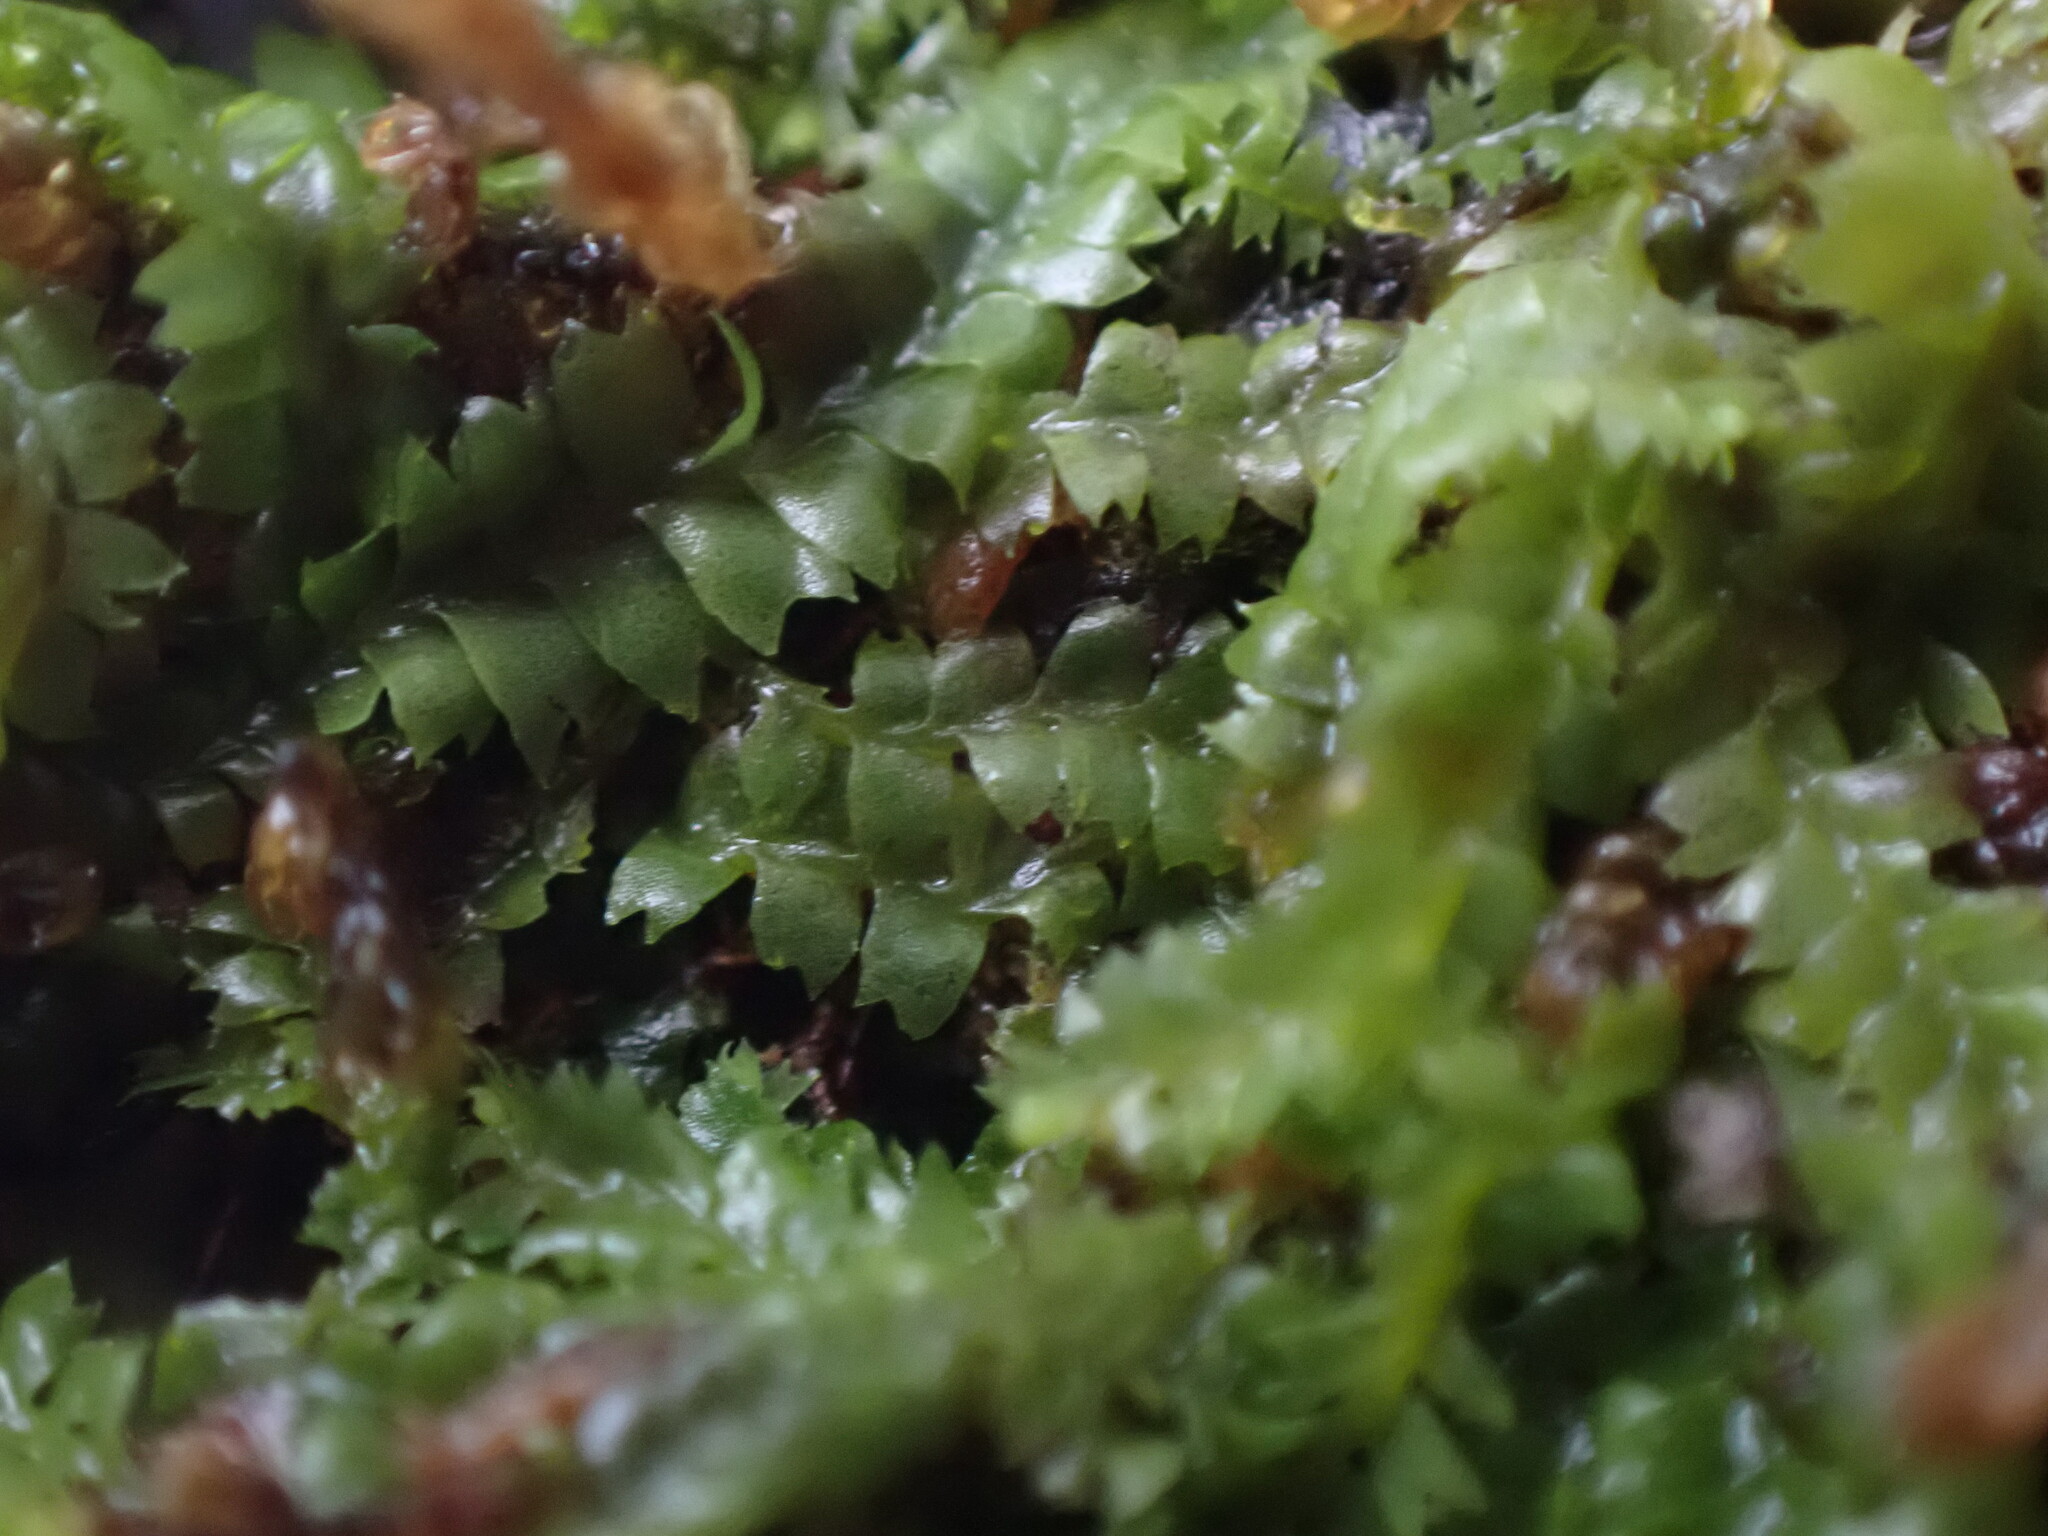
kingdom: Plantae
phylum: Marchantiophyta
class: Jungermanniopsida
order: Jungermanniales
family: Geocalycaceae
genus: Geocalyx
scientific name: Geocalyx graveolens
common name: Turps pouchwort
